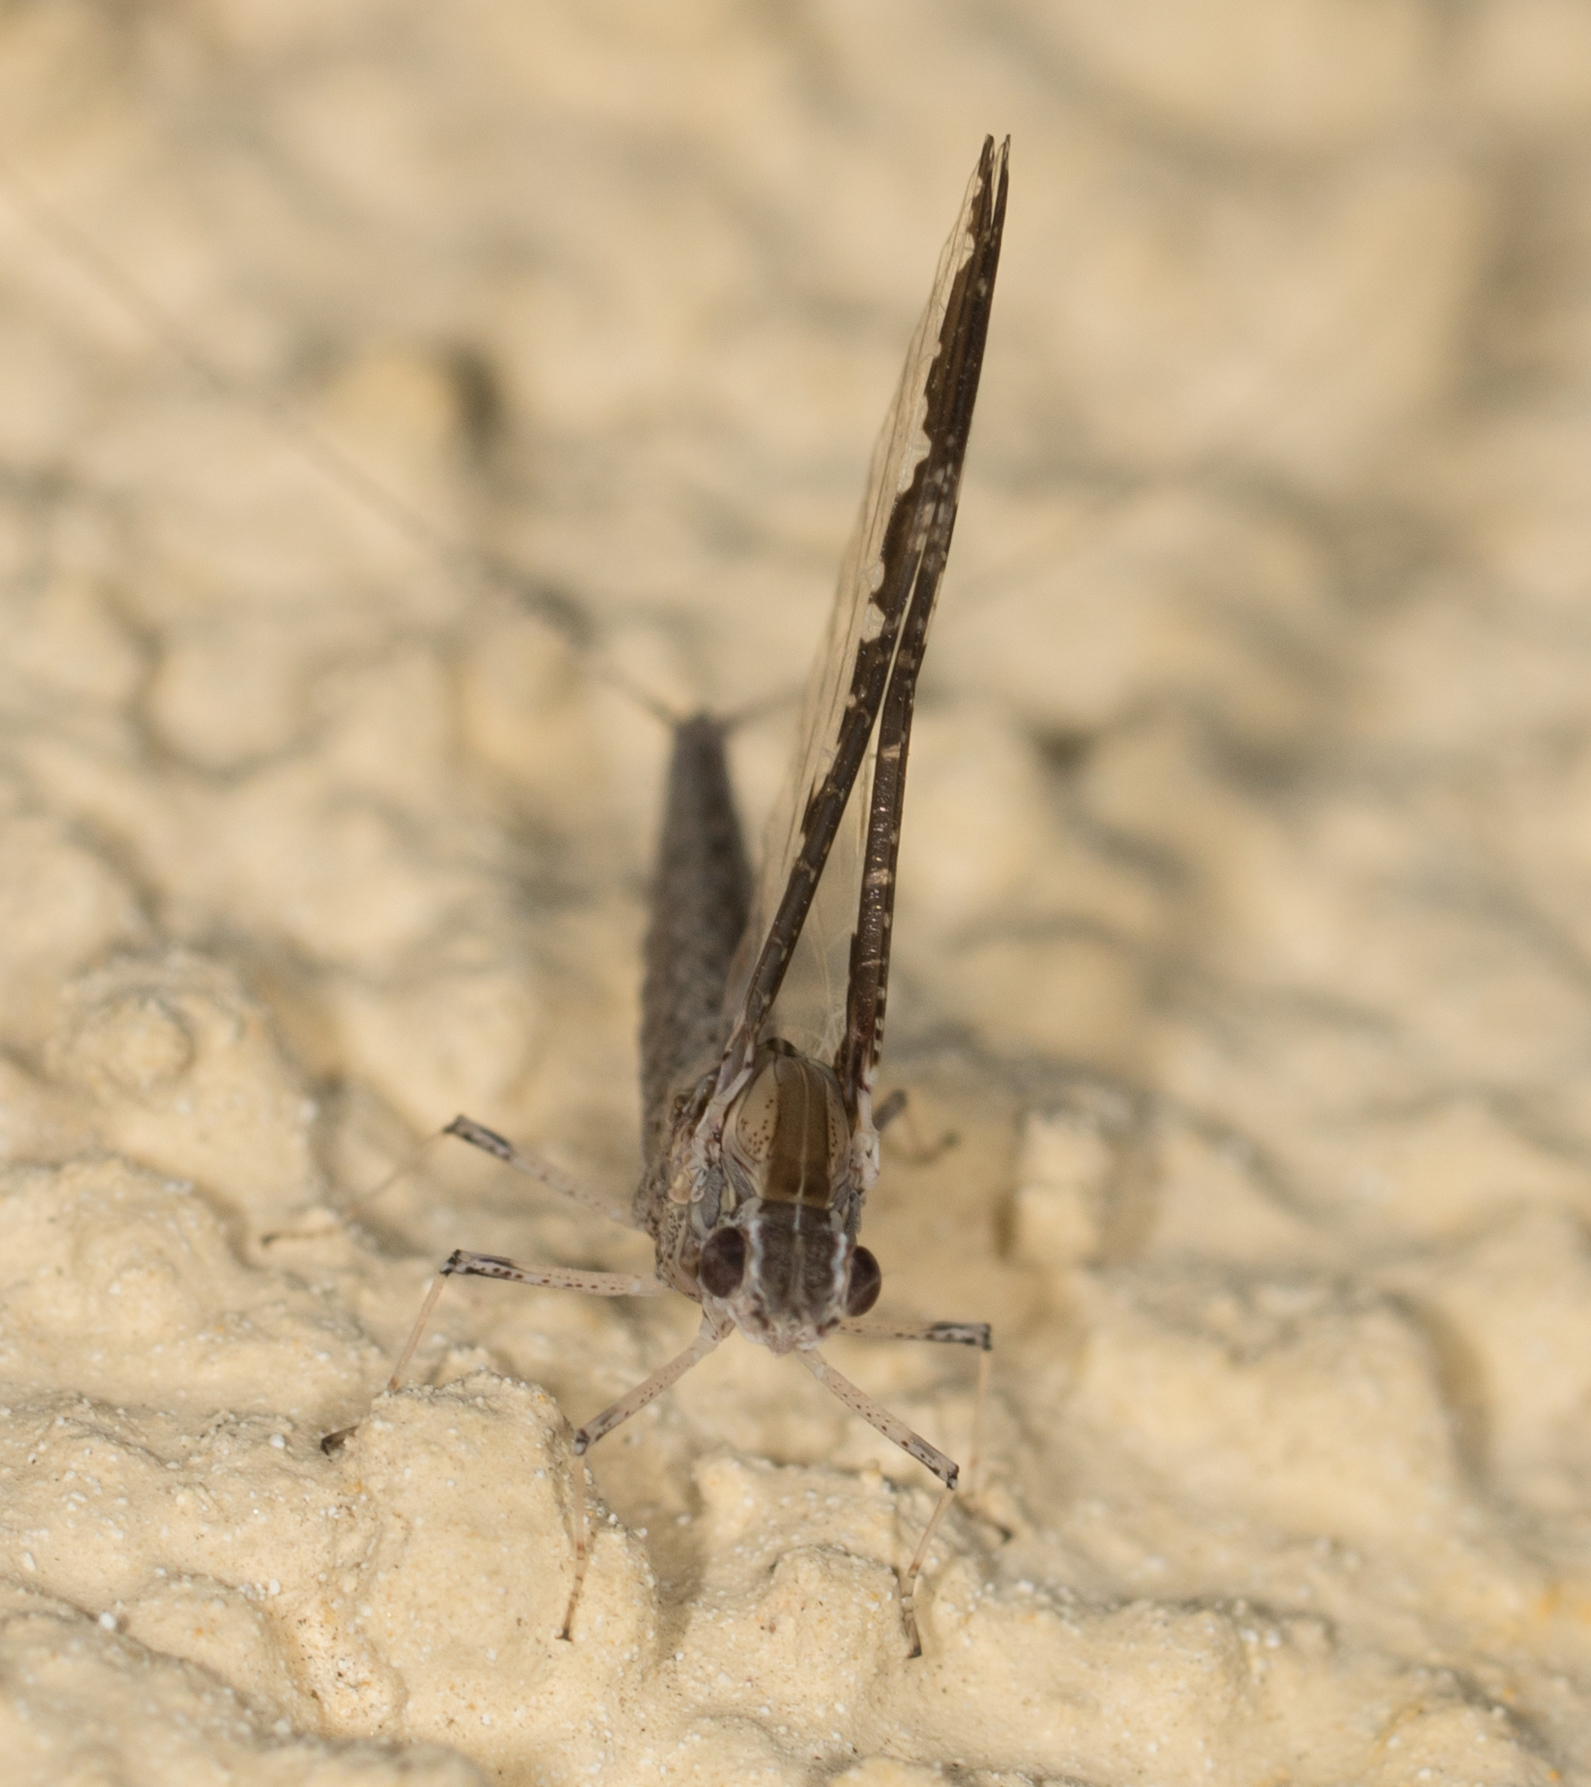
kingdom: Animalia
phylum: Arthropoda
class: Insecta
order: Ephemeroptera
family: Baetidae
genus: Callibaetis
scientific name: Callibaetis californicus
